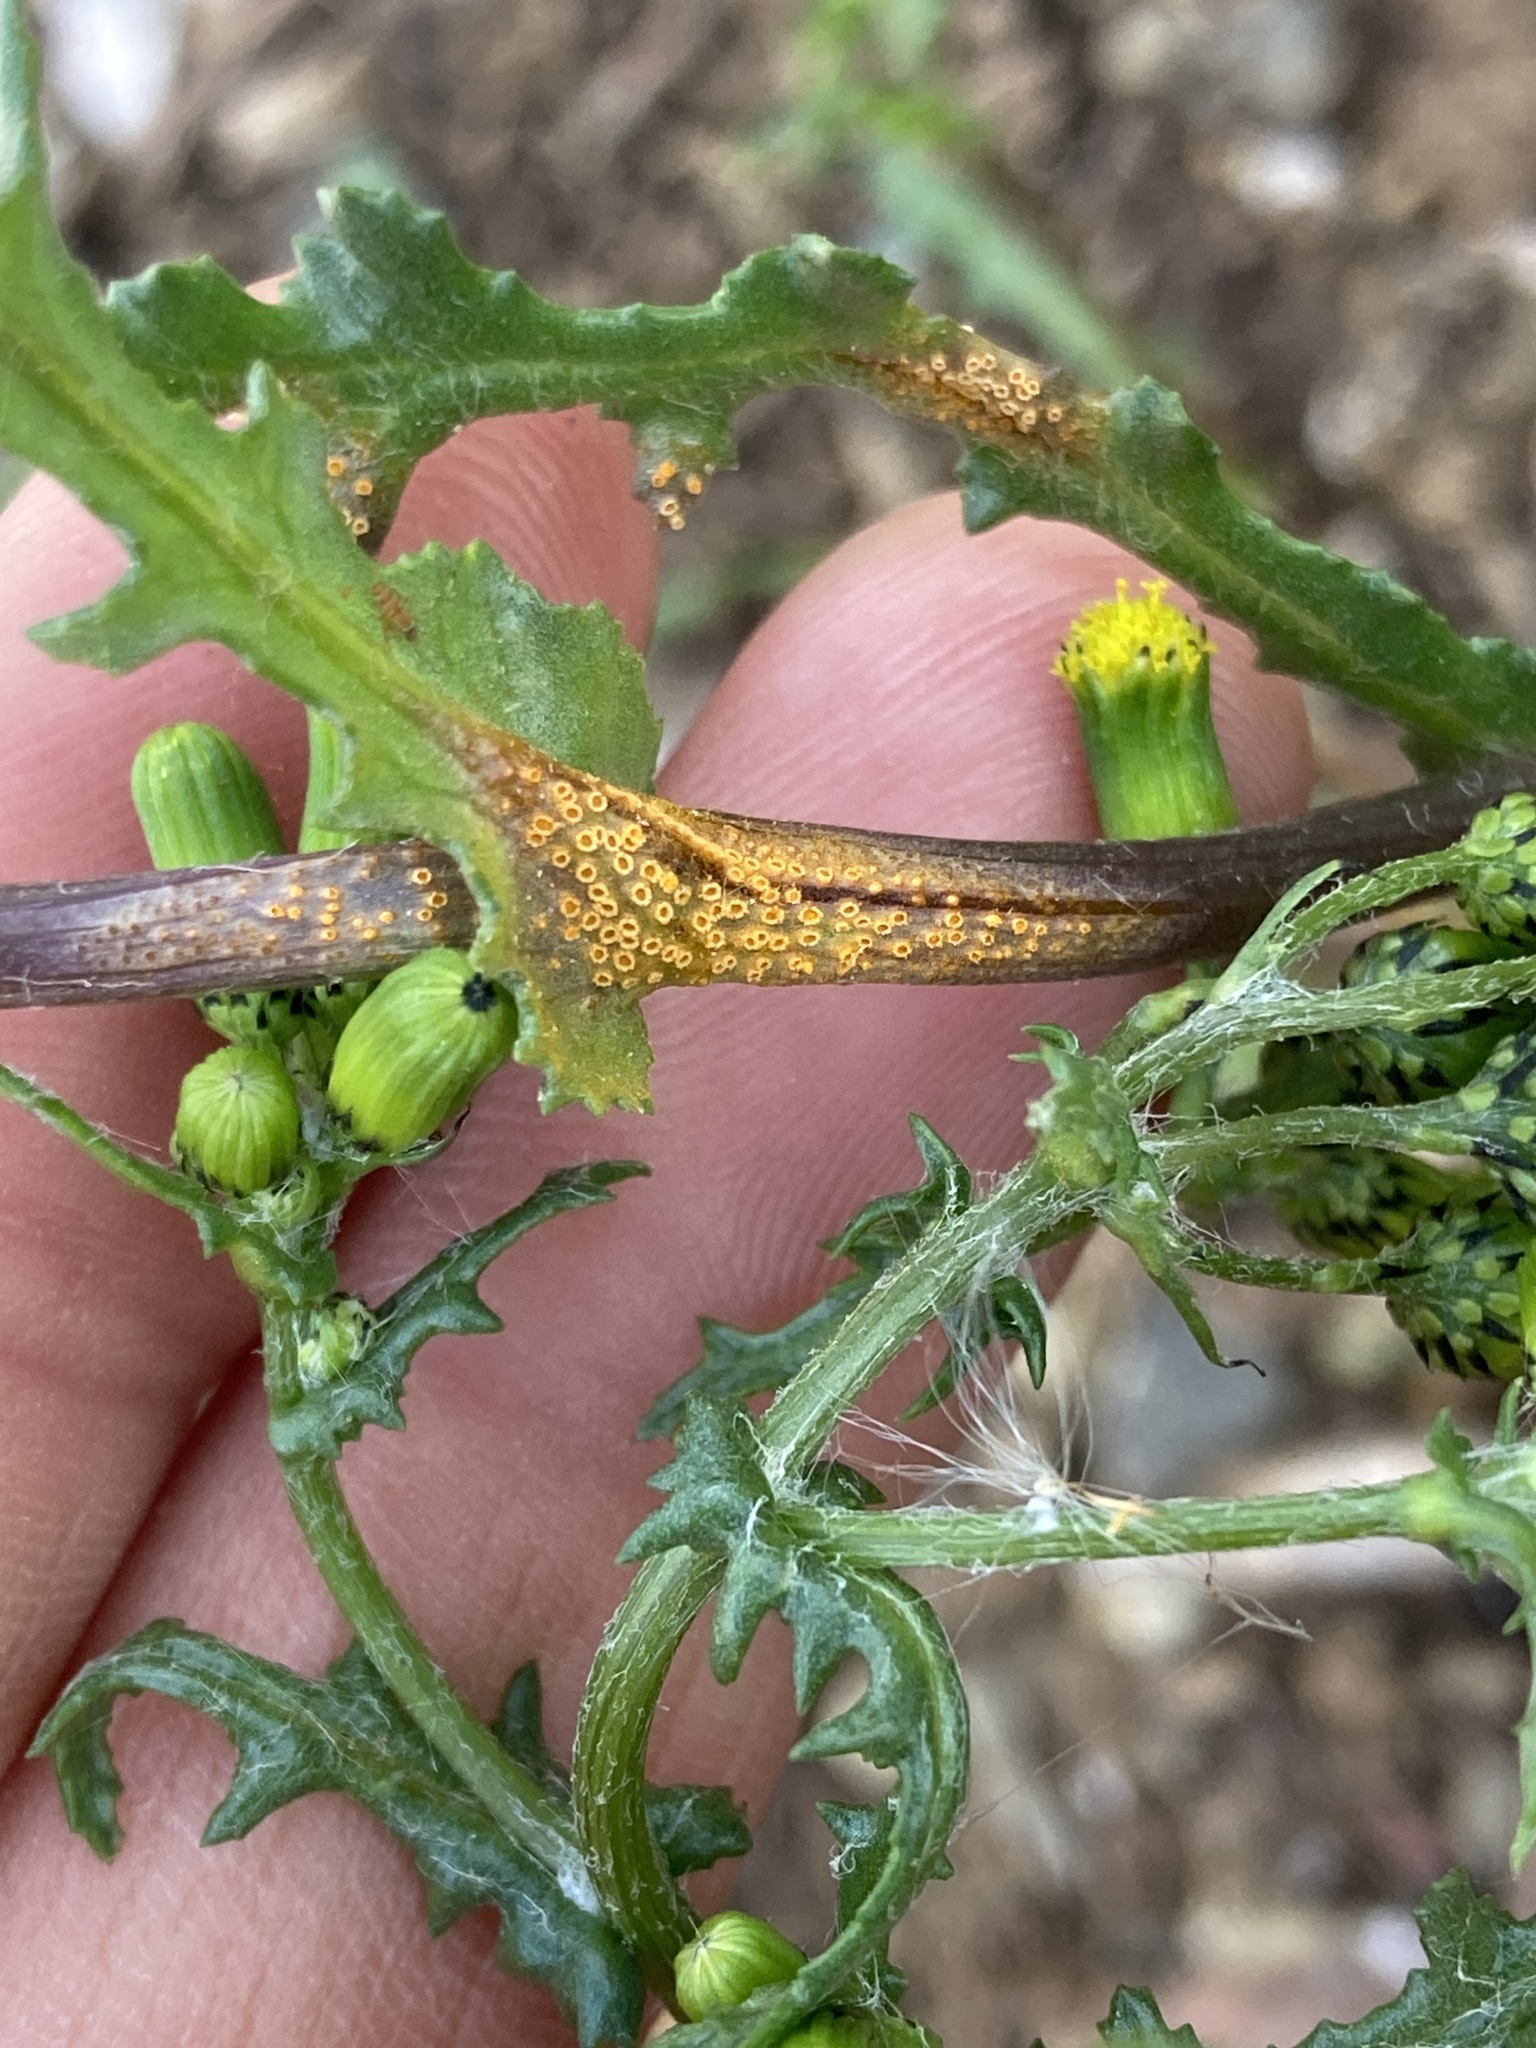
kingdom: Plantae
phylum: Tracheophyta
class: Magnoliopsida
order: Asterales
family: Asteraceae
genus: Senecio
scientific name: Senecio vulgaris
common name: Old-man-in-the-spring
